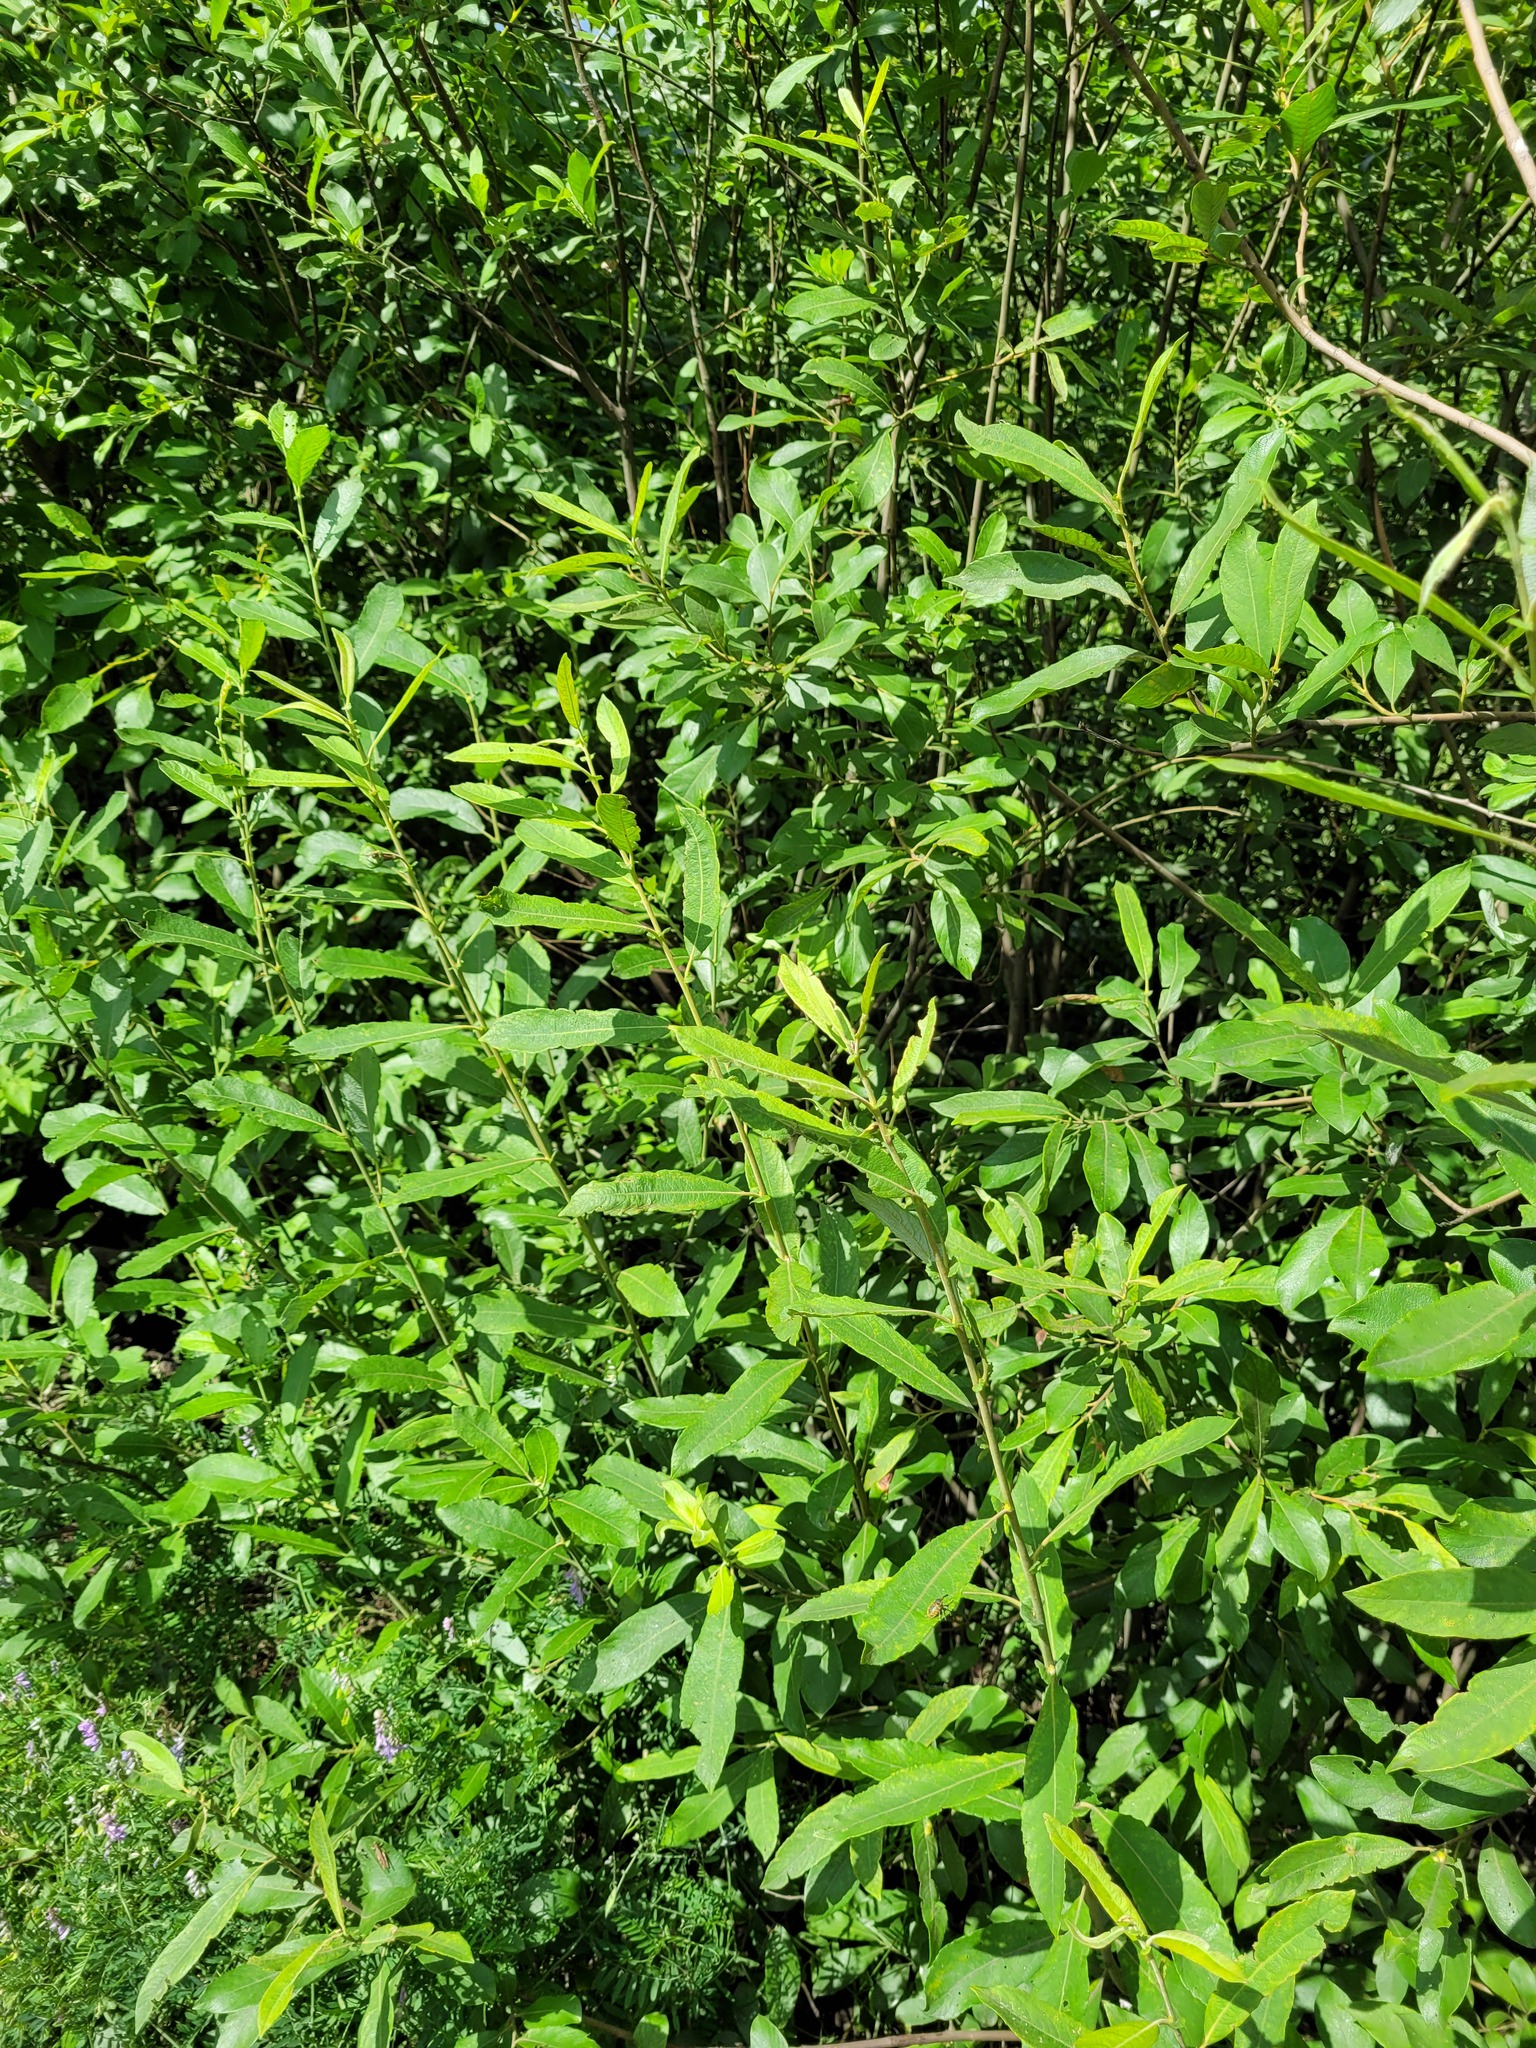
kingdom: Plantae
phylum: Tracheophyta
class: Magnoliopsida
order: Malpighiales
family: Salicaceae
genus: Salix
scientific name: Salix cinerea
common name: Common sallow
